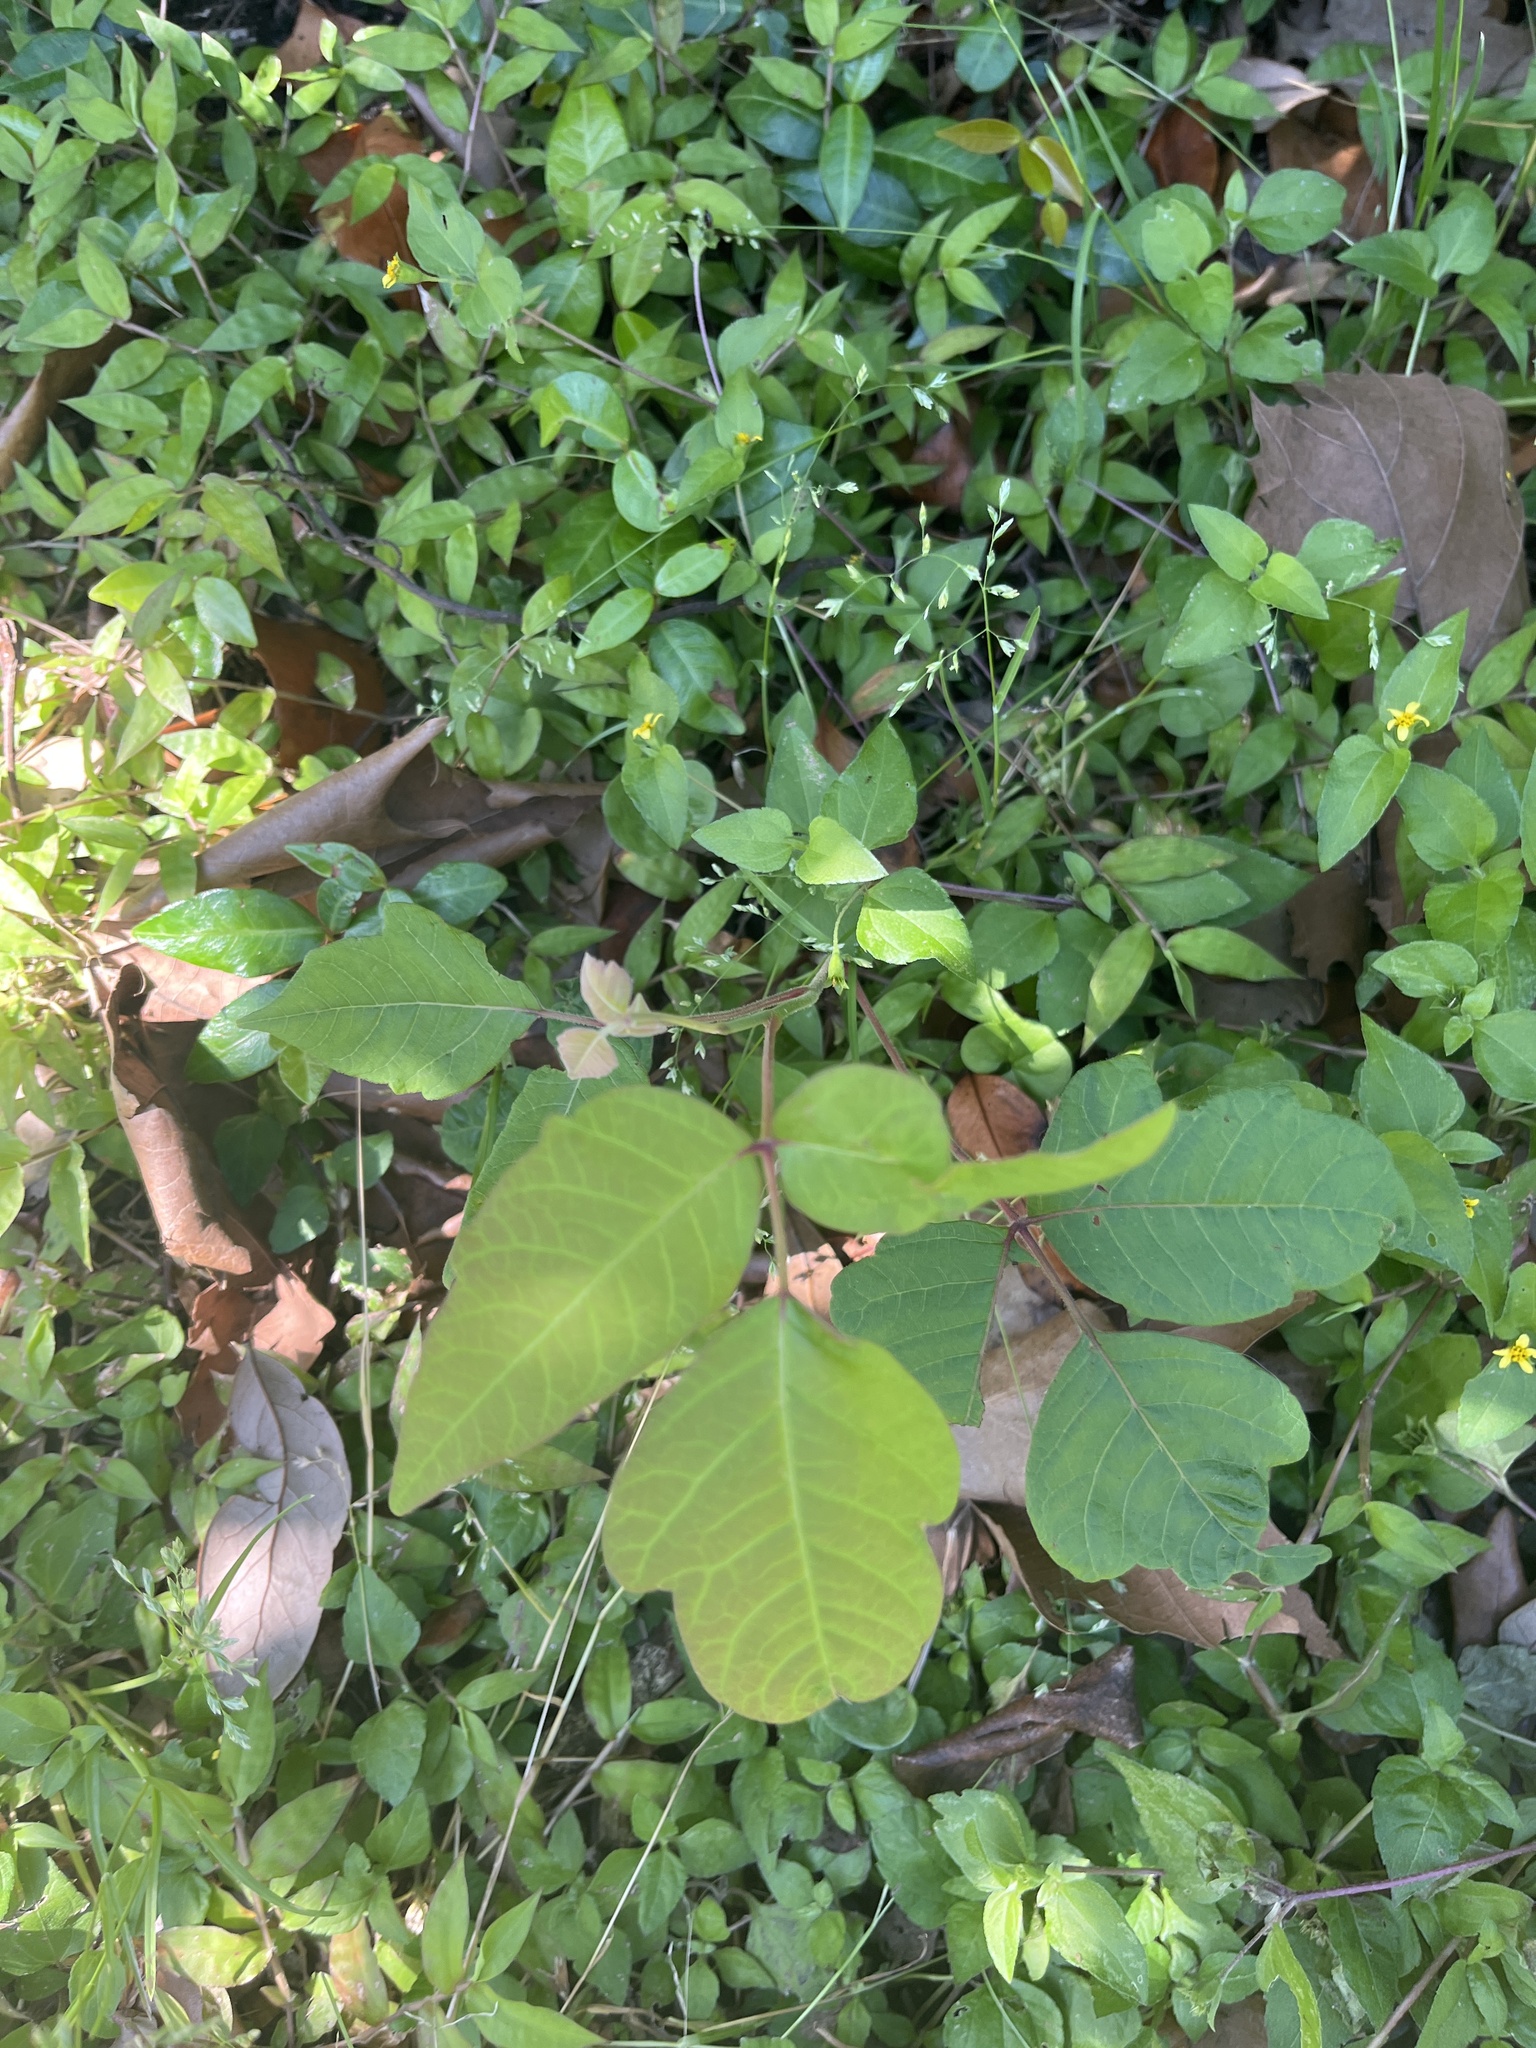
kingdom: Plantae
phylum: Tracheophyta
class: Magnoliopsida
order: Sapindales
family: Anacardiaceae
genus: Toxicodendron
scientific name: Toxicodendron radicans
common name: Poison ivy
